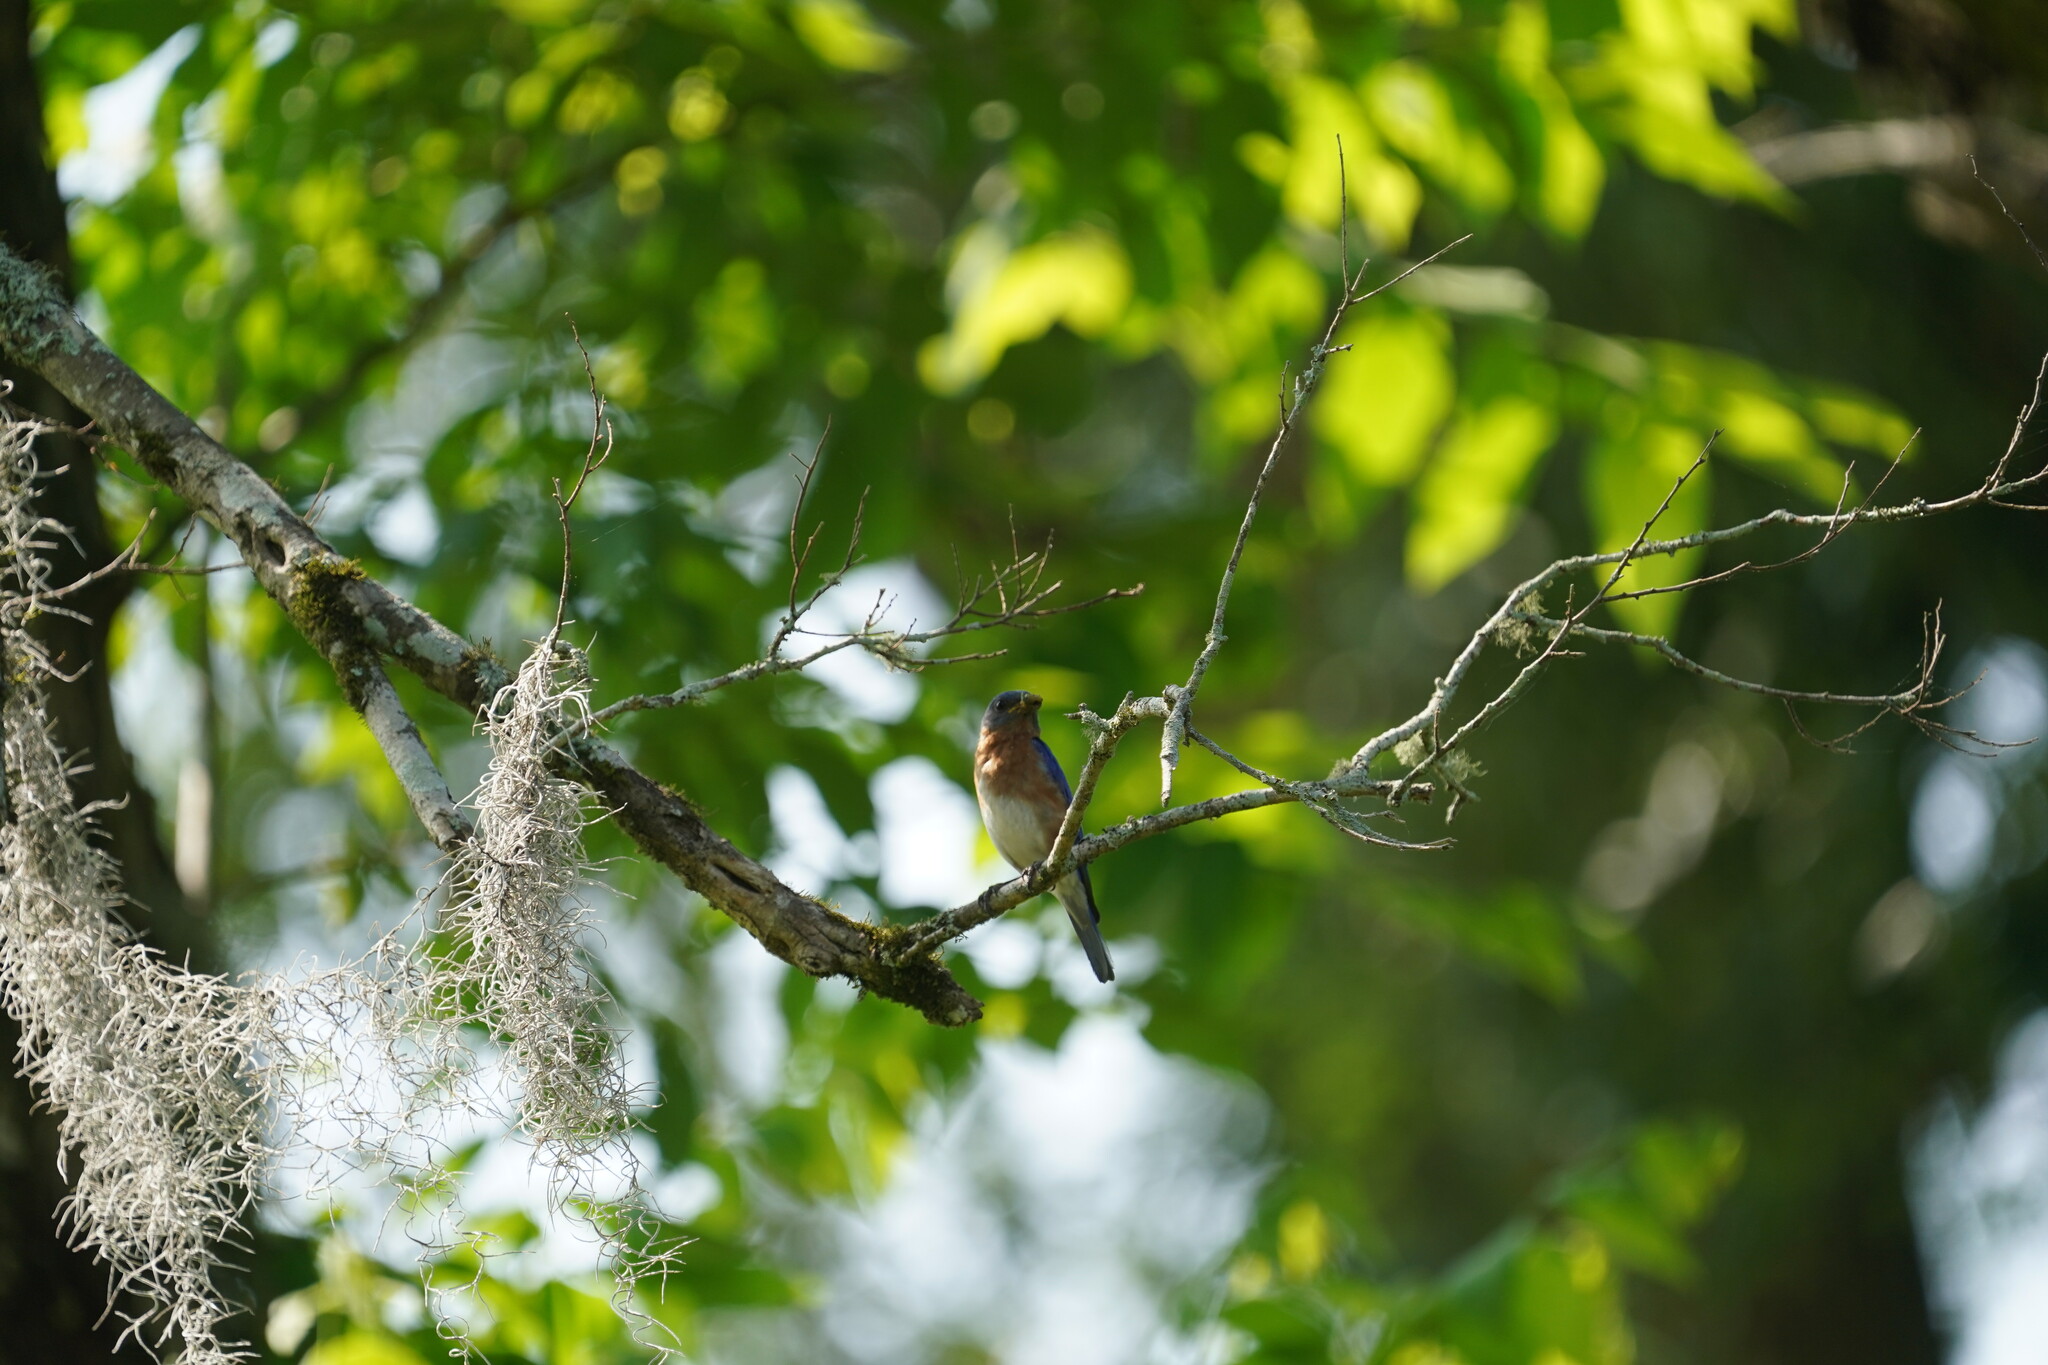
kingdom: Animalia
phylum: Chordata
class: Aves
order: Passeriformes
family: Turdidae
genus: Sialia
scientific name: Sialia sialis
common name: Eastern bluebird
